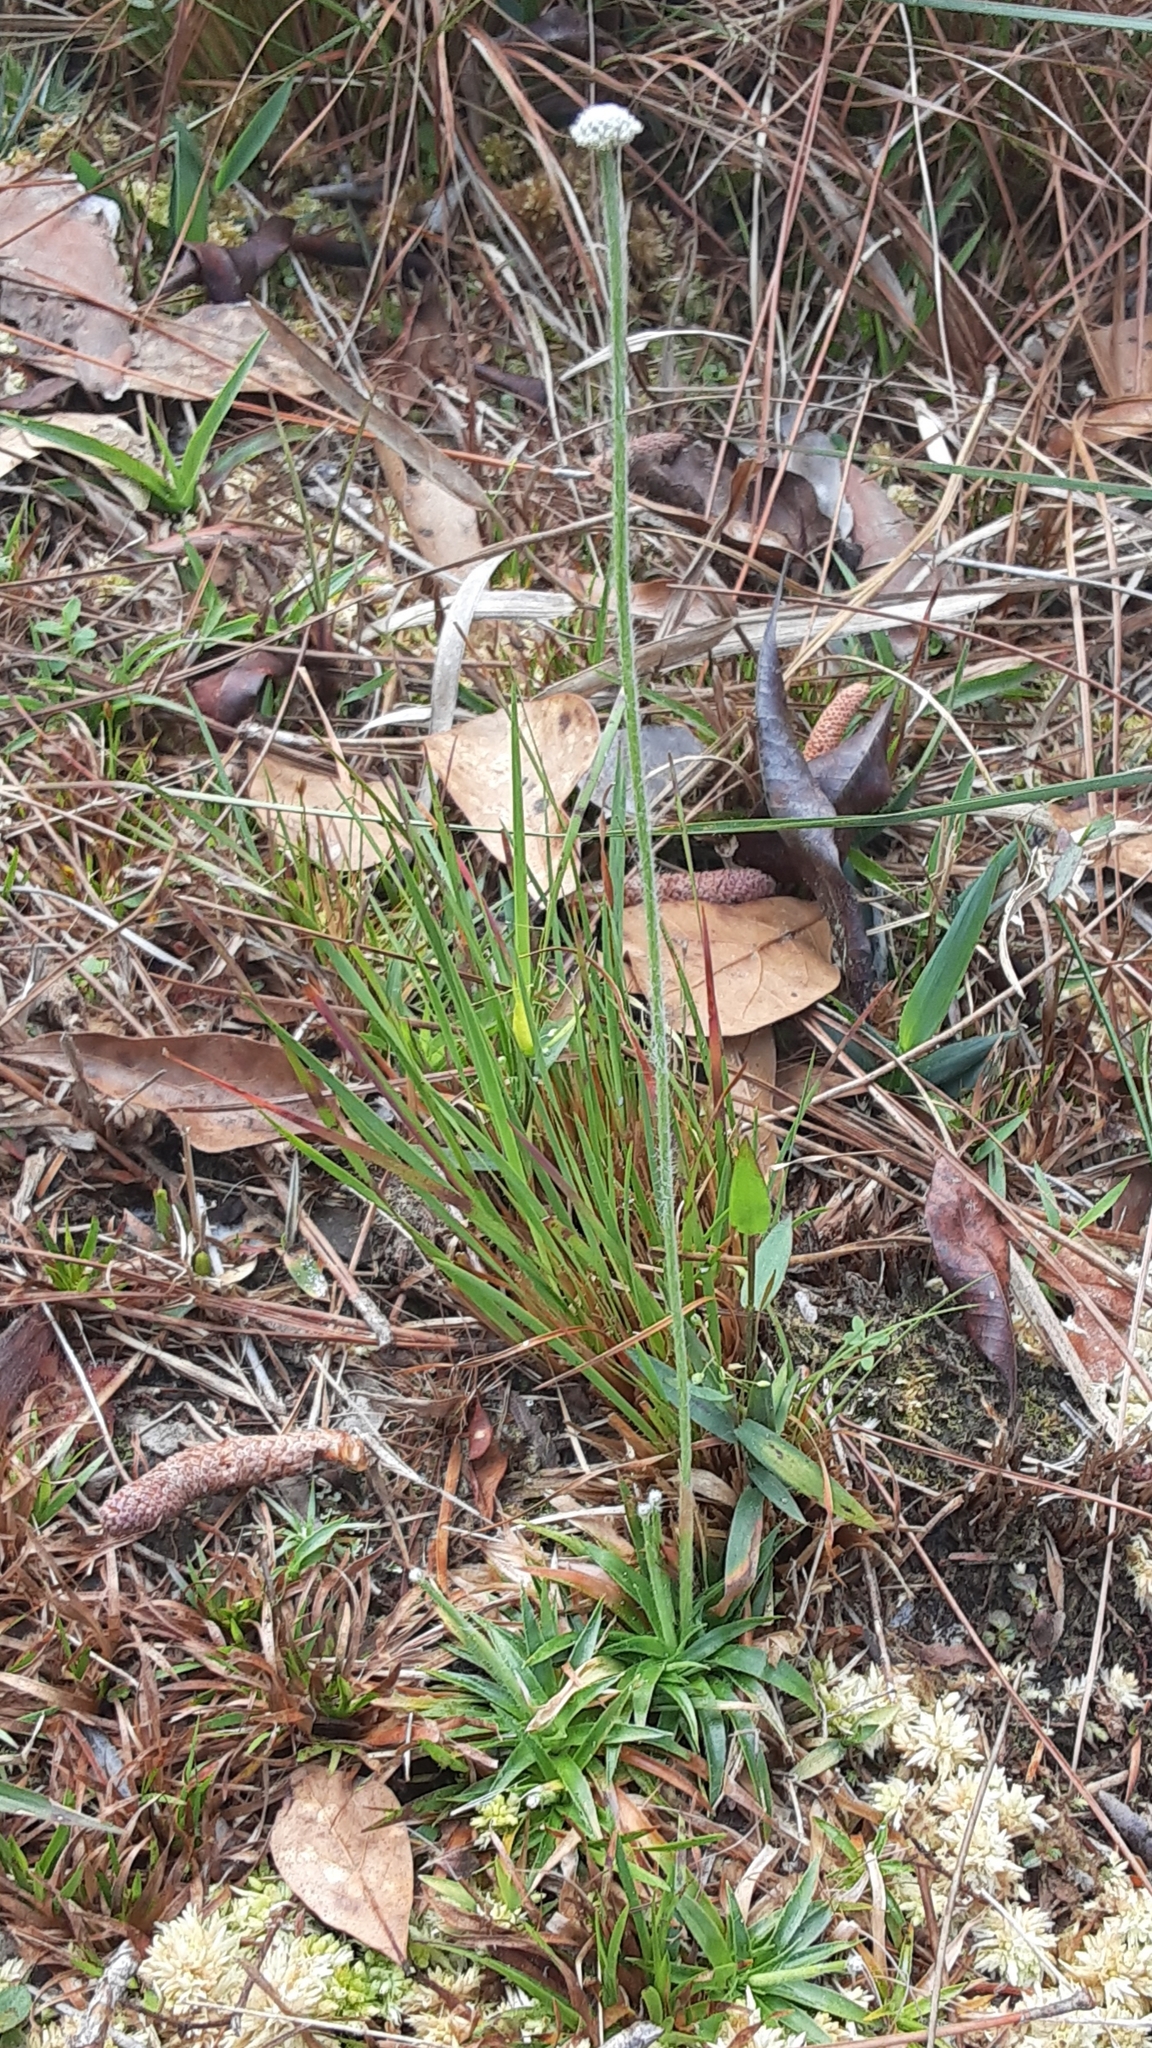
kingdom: Plantae
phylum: Tracheophyta
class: Liliopsida
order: Poales
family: Eriocaulaceae
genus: Paepalanthus
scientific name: Paepalanthus anceps
